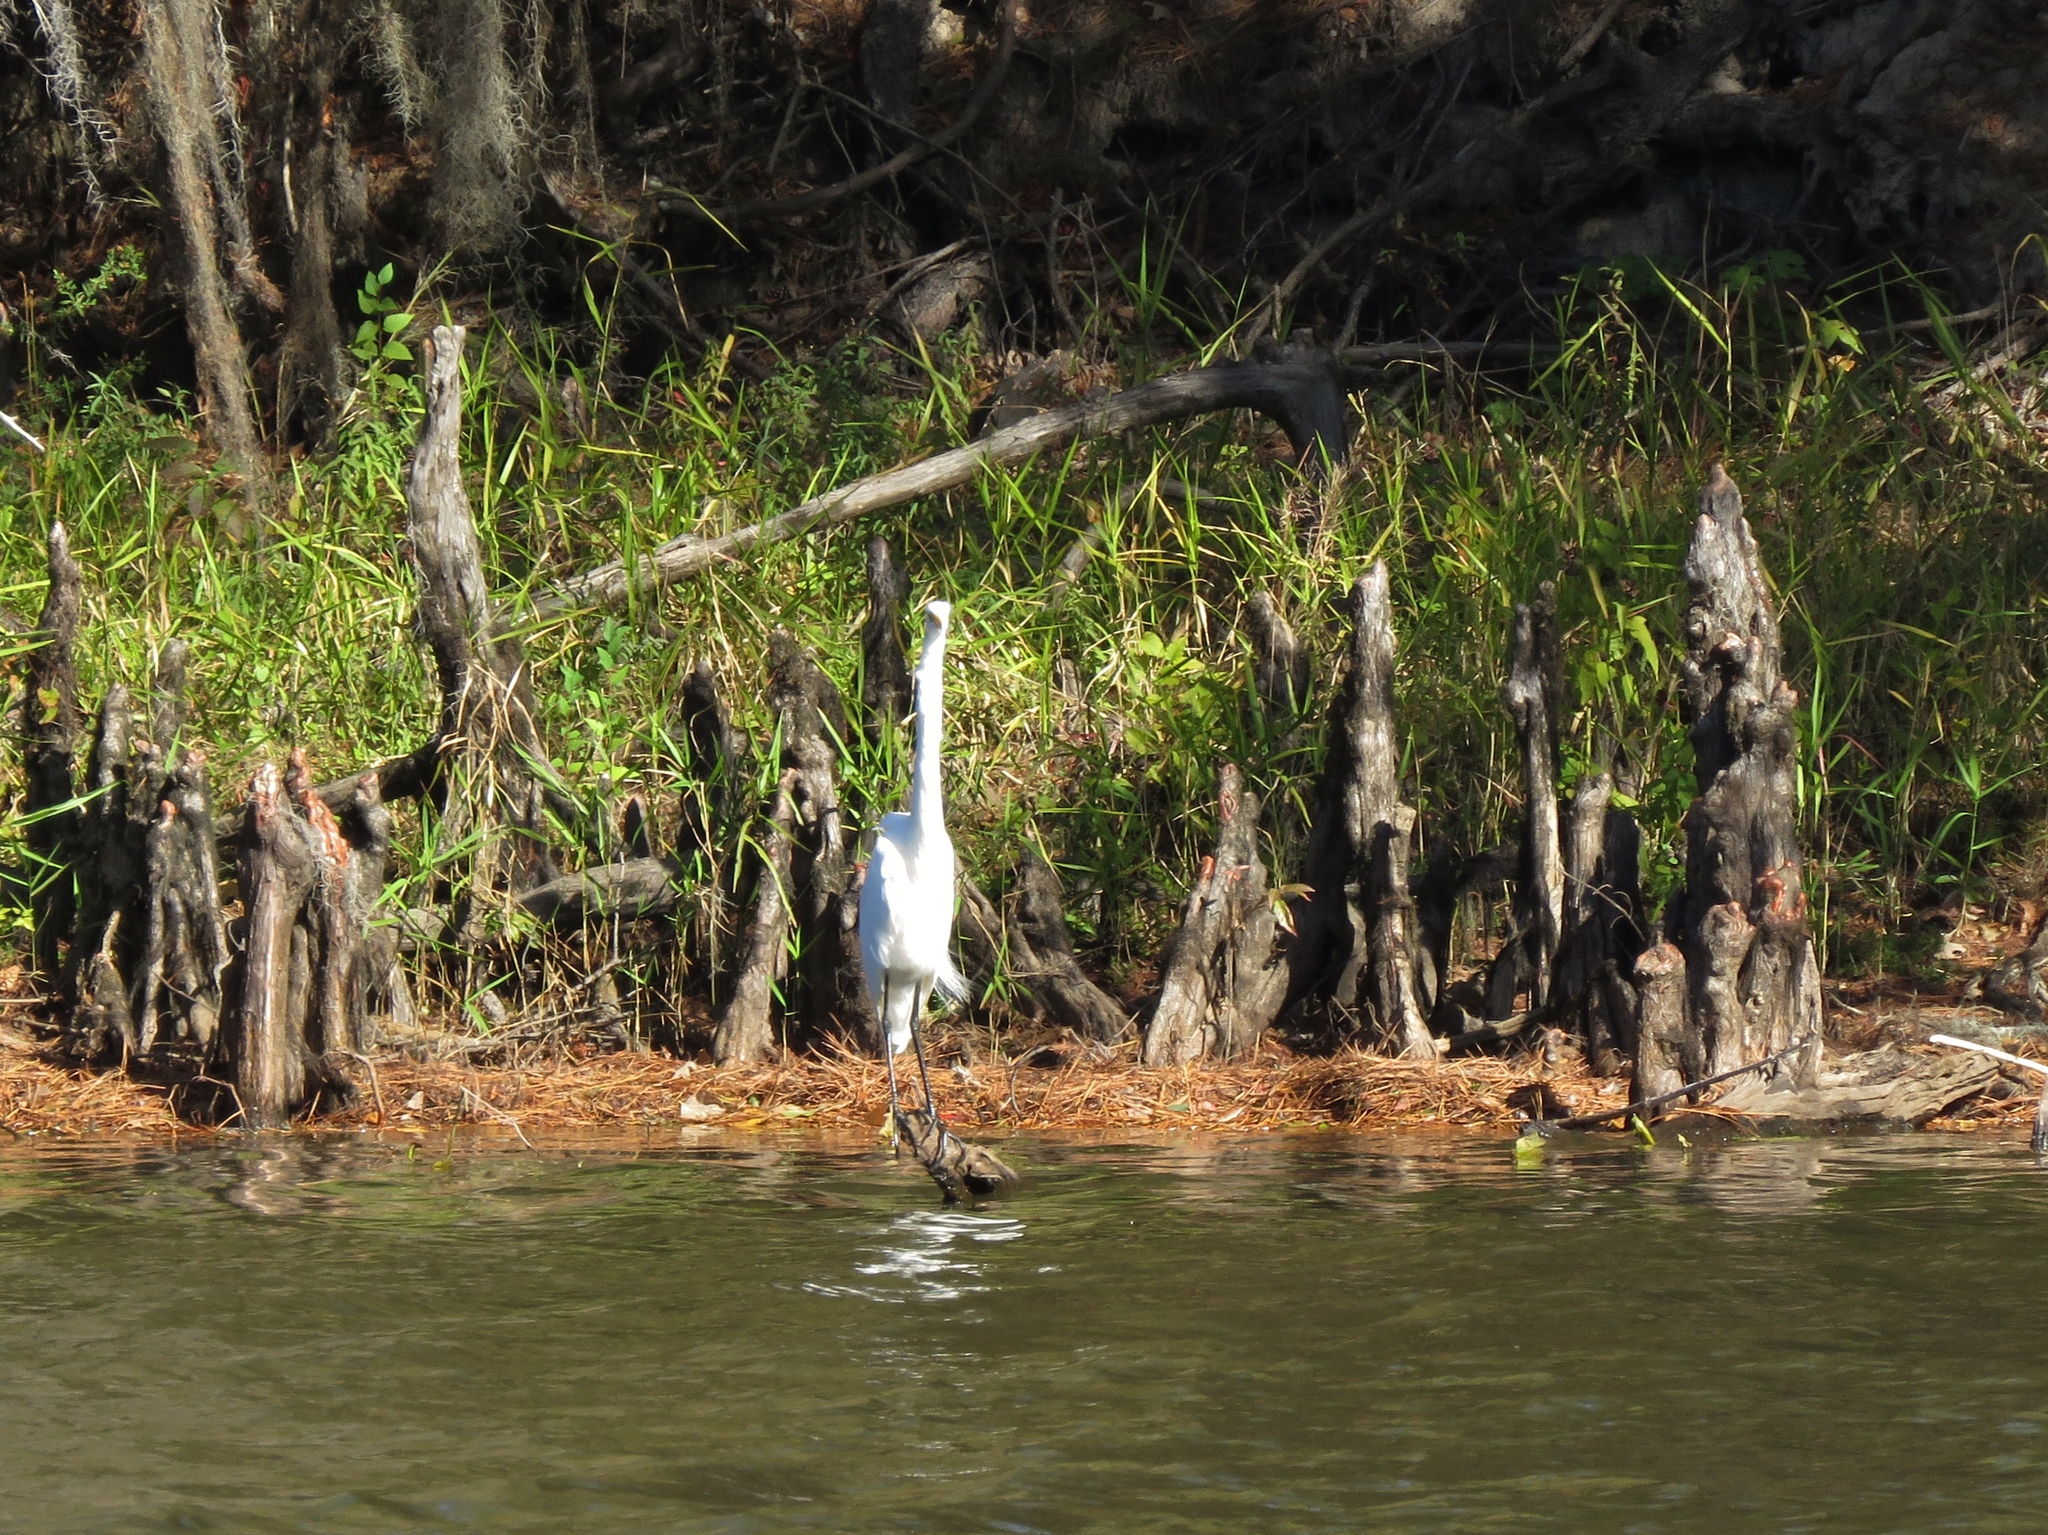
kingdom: Animalia
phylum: Chordata
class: Aves
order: Pelecaniformes
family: Ardeidae
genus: Ardea
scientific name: Ardea alba
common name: Great egret
